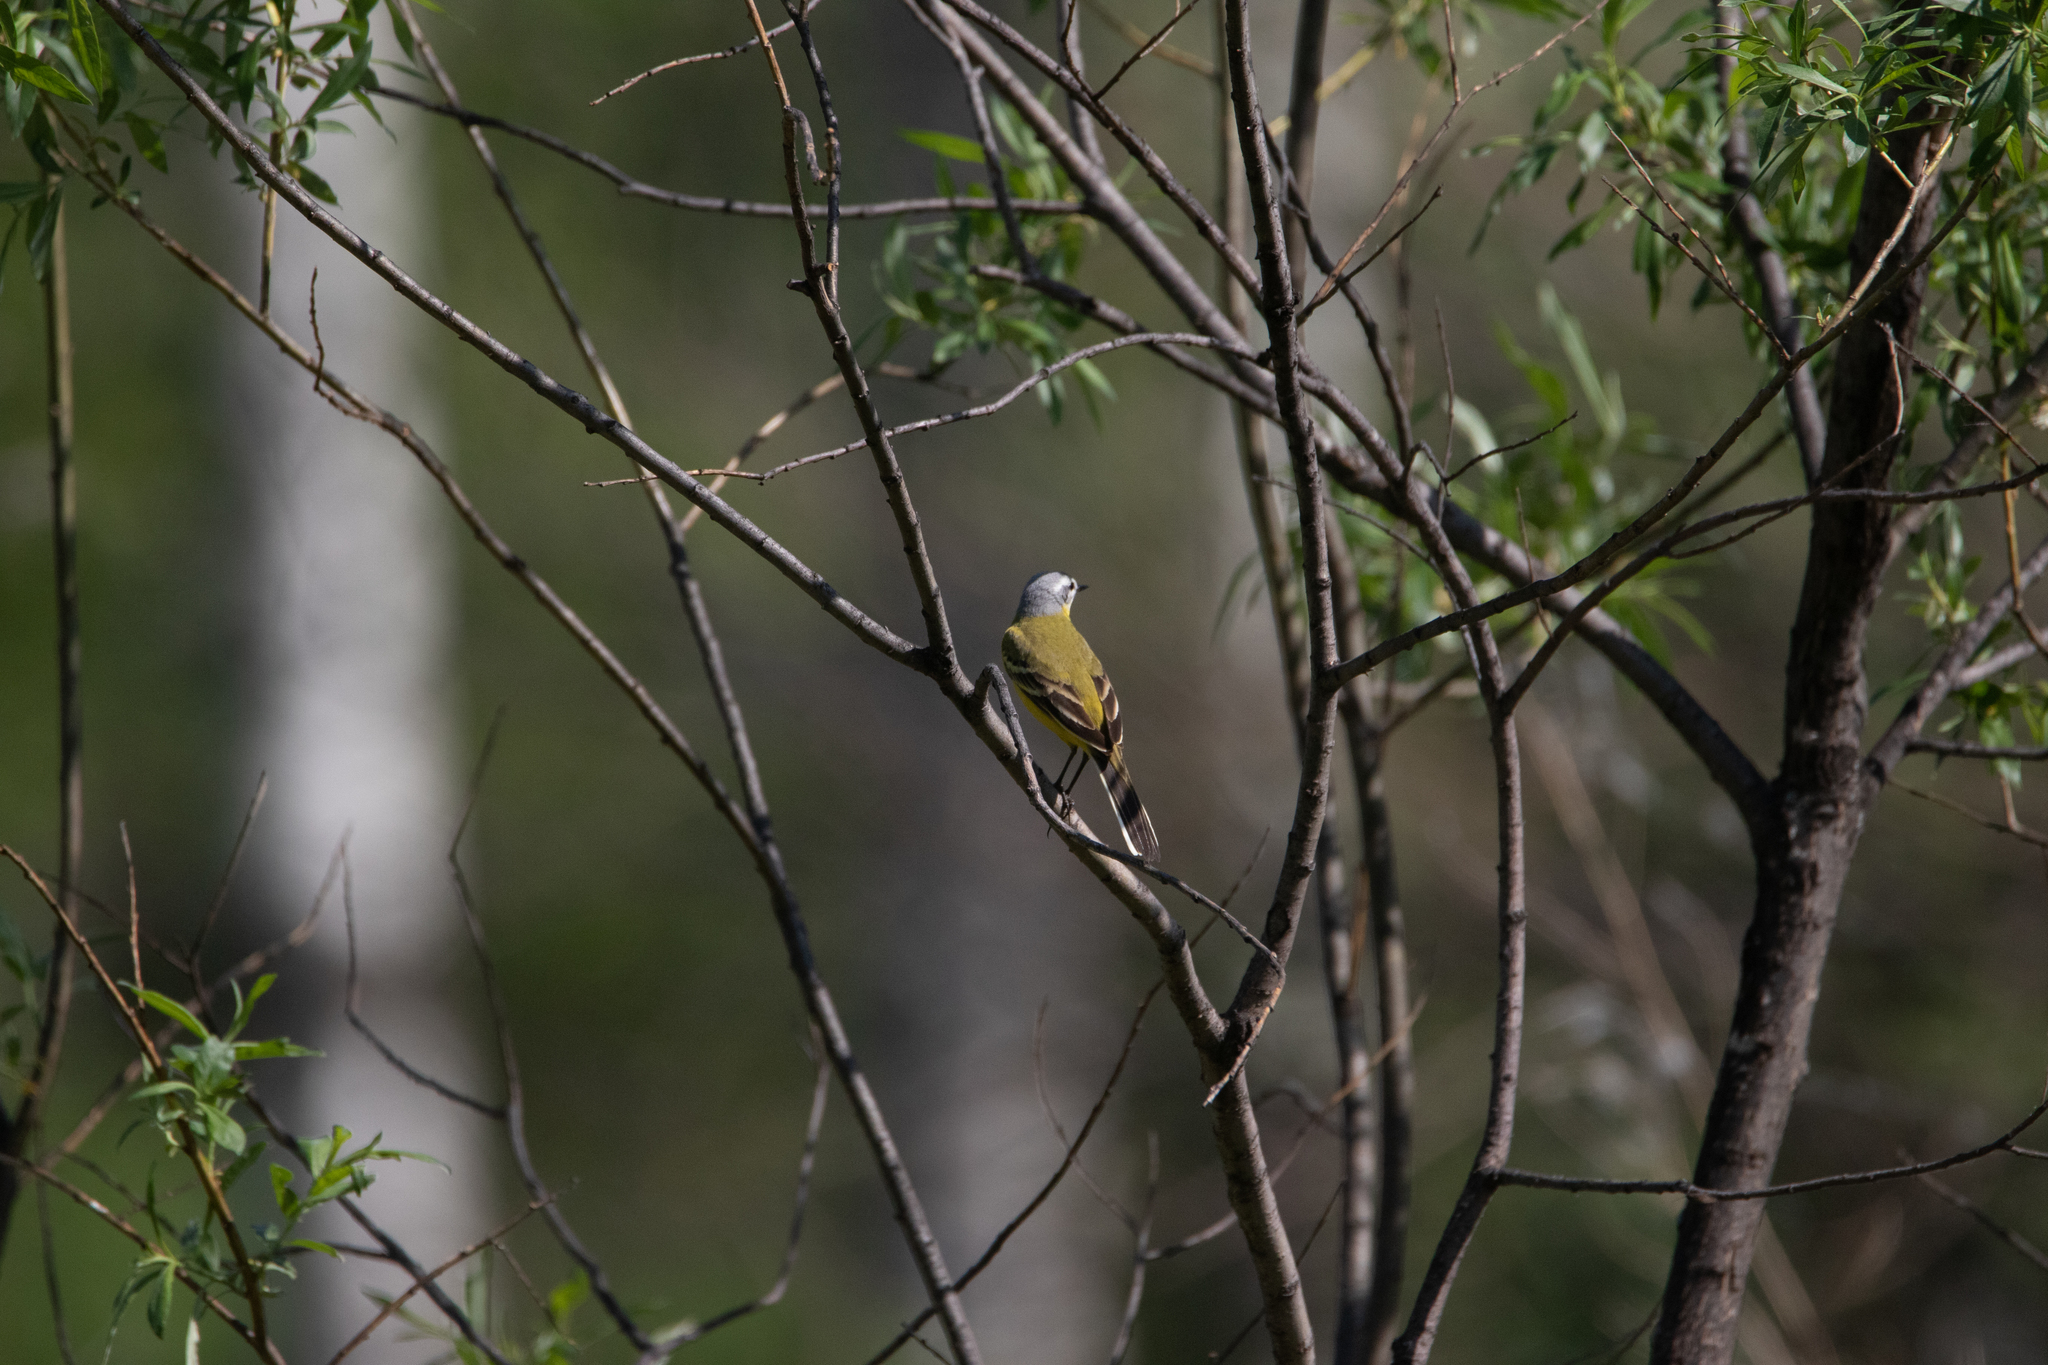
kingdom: Animalia
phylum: Chordata
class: Aves
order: Passeriformes
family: Motacillidae
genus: Motacilla
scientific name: Motacilla flava
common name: Western yellow wagtail
